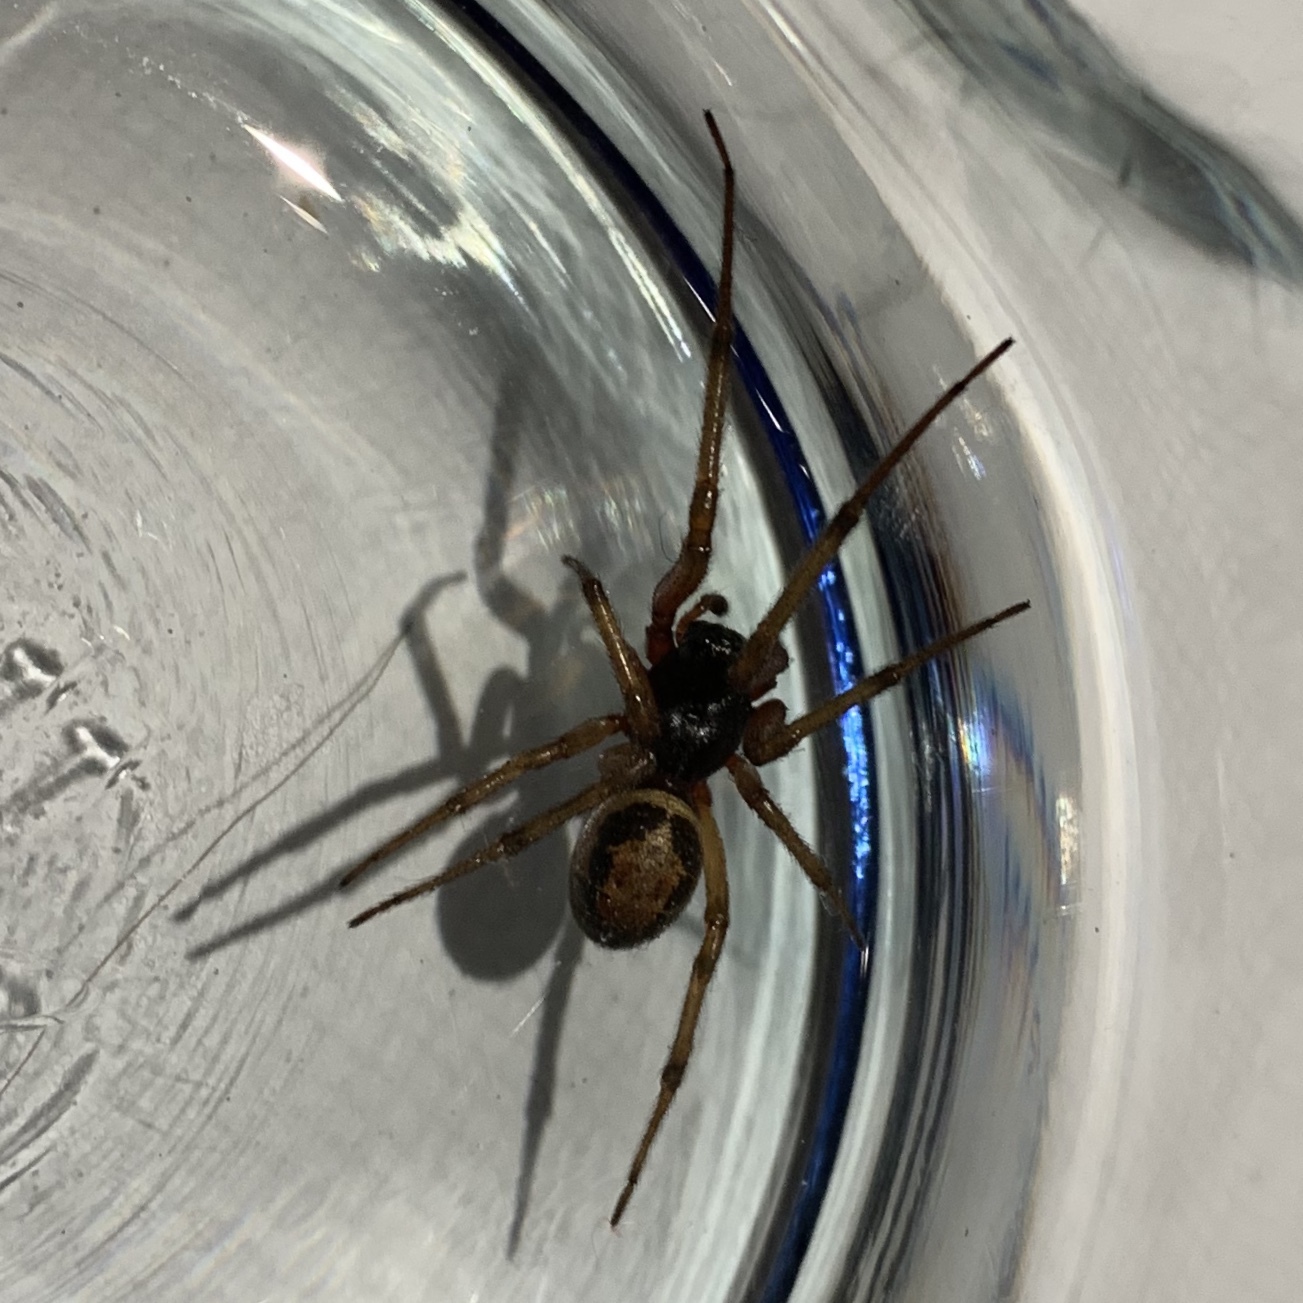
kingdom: Animalia
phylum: Arthropoda
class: Arachnida
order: Araneae
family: Theridiidae
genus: Steatoda
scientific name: Steatoda nobilis
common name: Cobweb weaver
